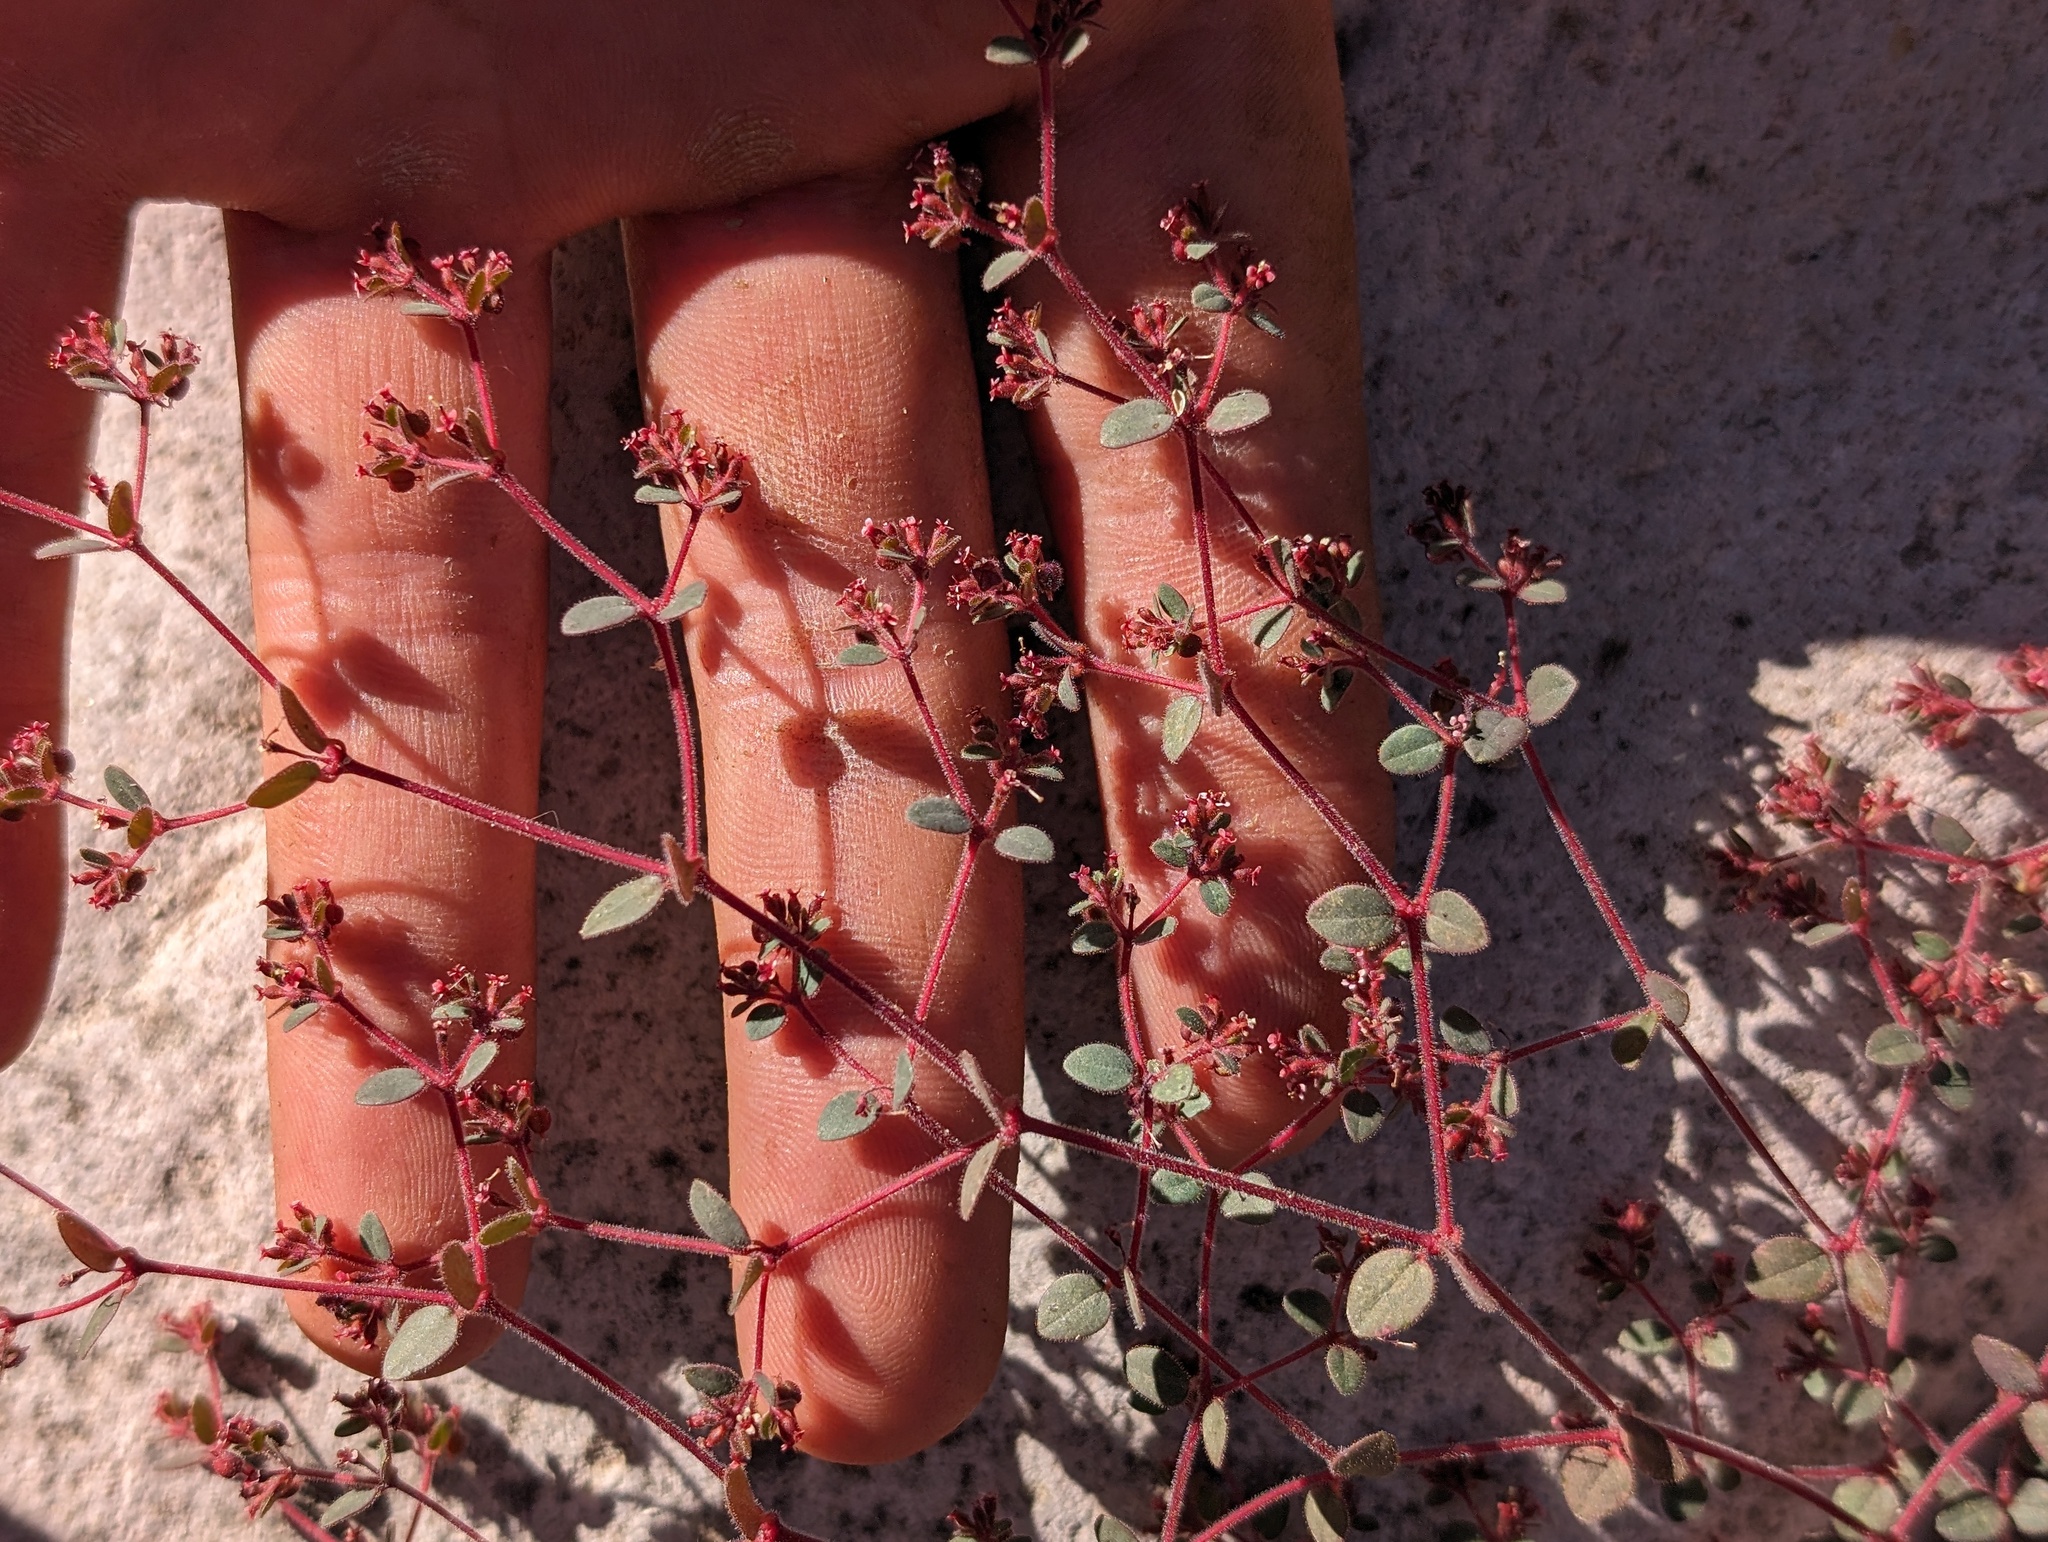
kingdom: Plantae
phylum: Tracheophyta
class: Magnoliopsida
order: Malpighiales
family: Euphorbiaceae
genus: Euphorbia
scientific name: Euphorbia arizonica
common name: Arizona spurge
